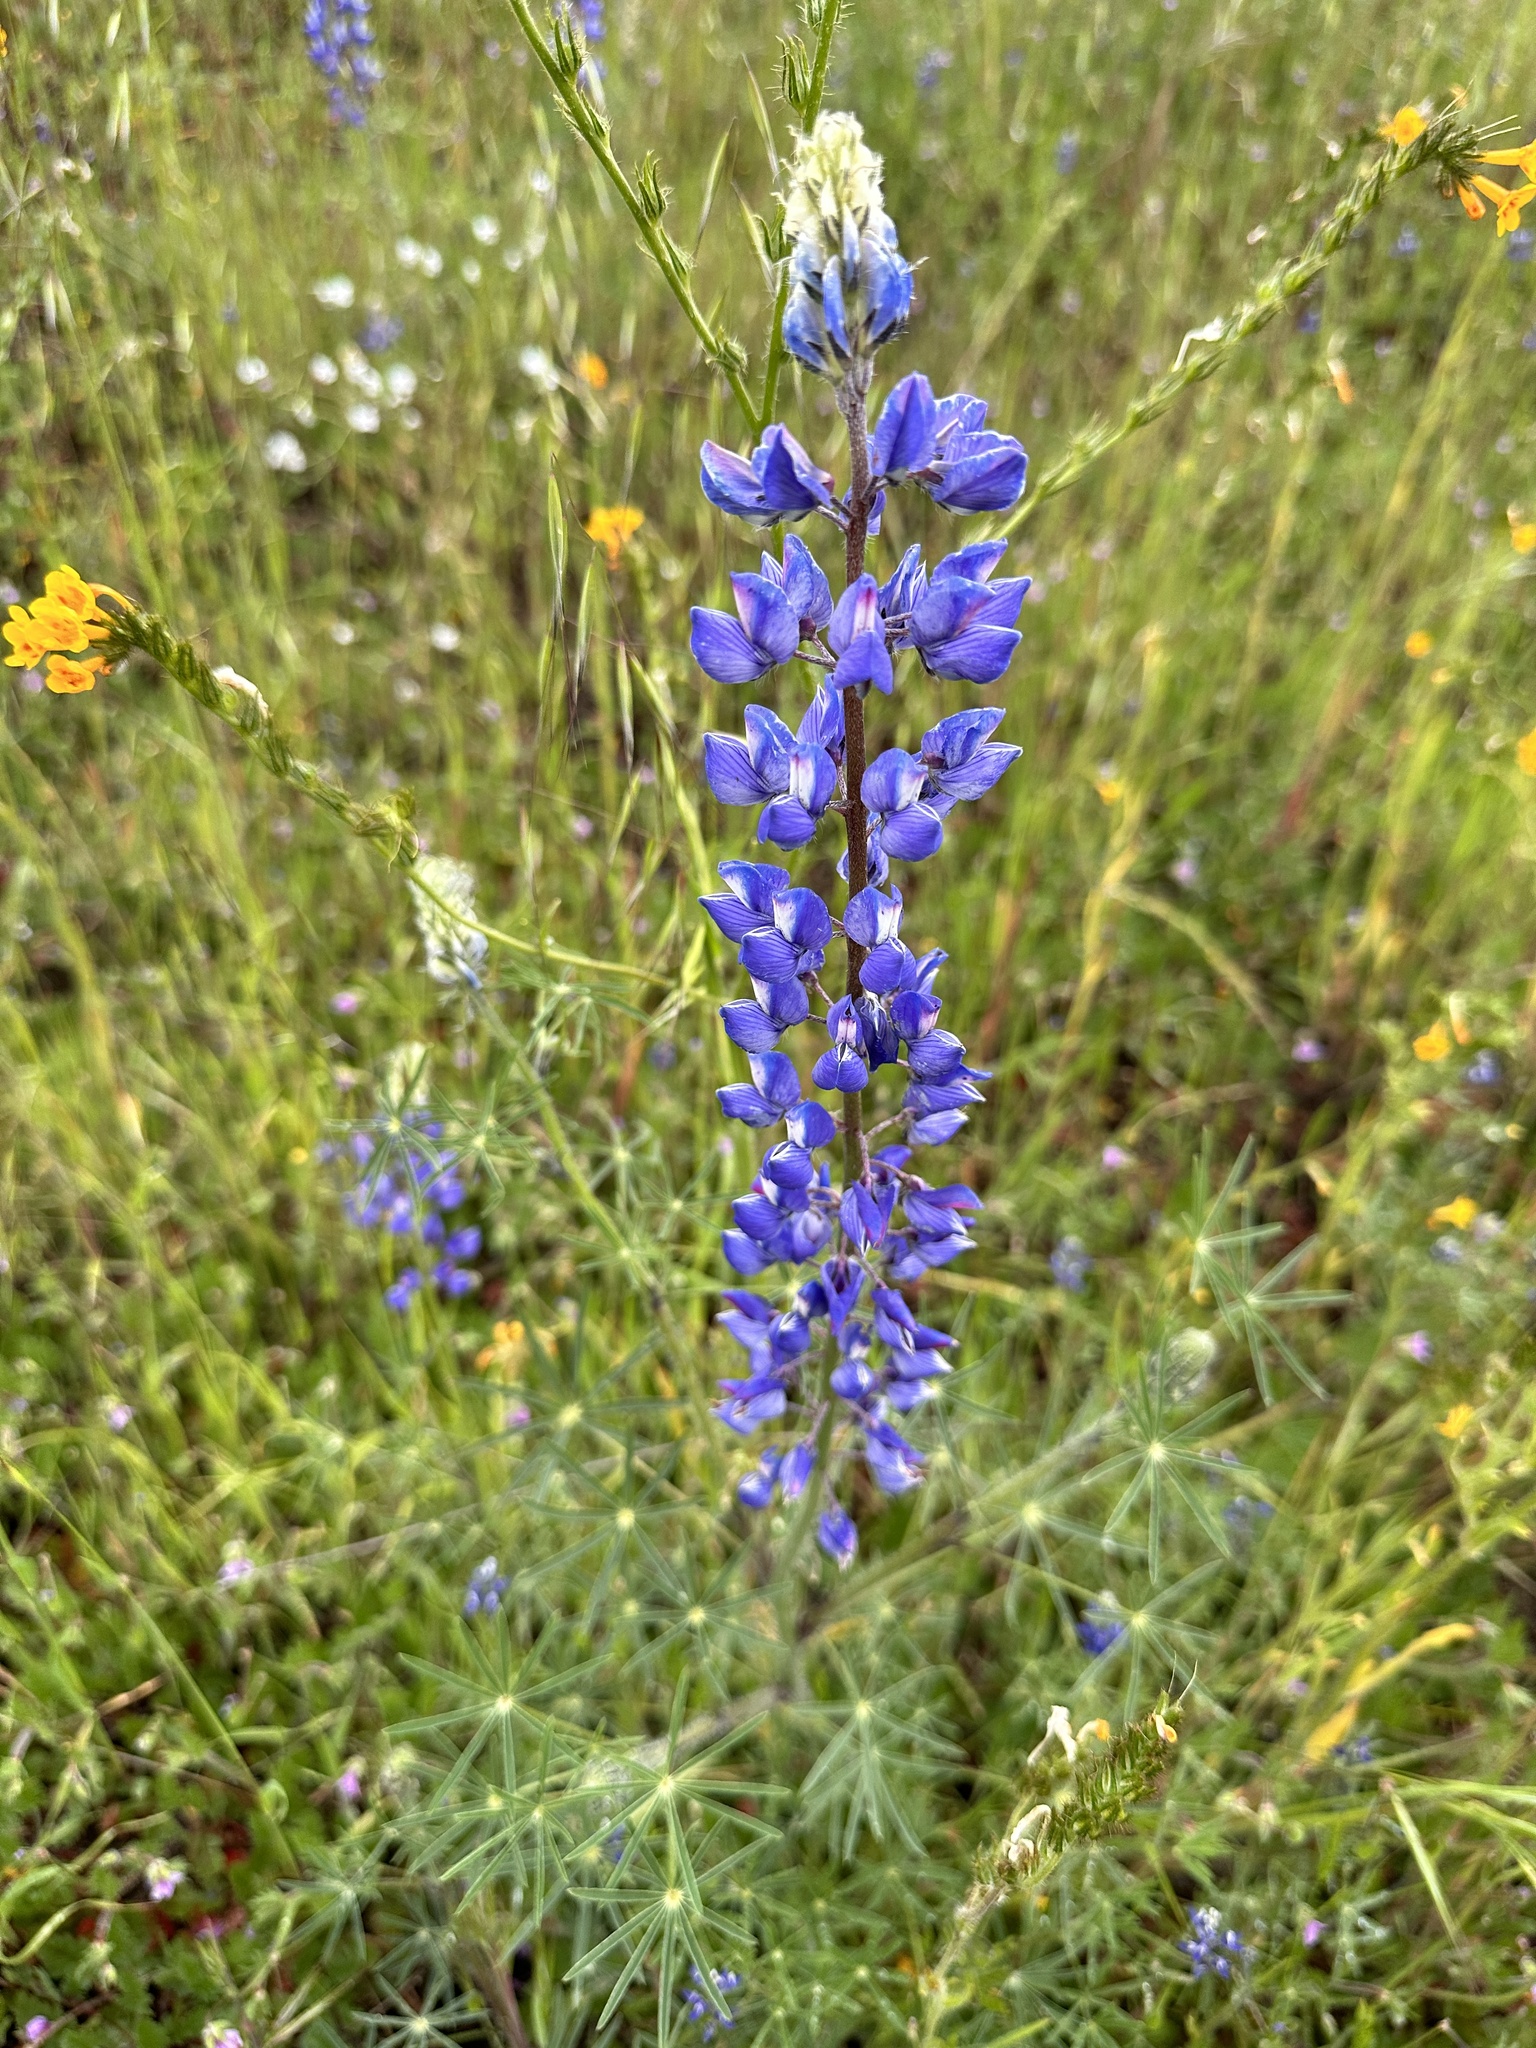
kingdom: Plantae
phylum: Tracheophyta
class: Magnoliopsida
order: Fabales
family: Fabaceae
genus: Lupinus
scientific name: Lupinus benthamii
